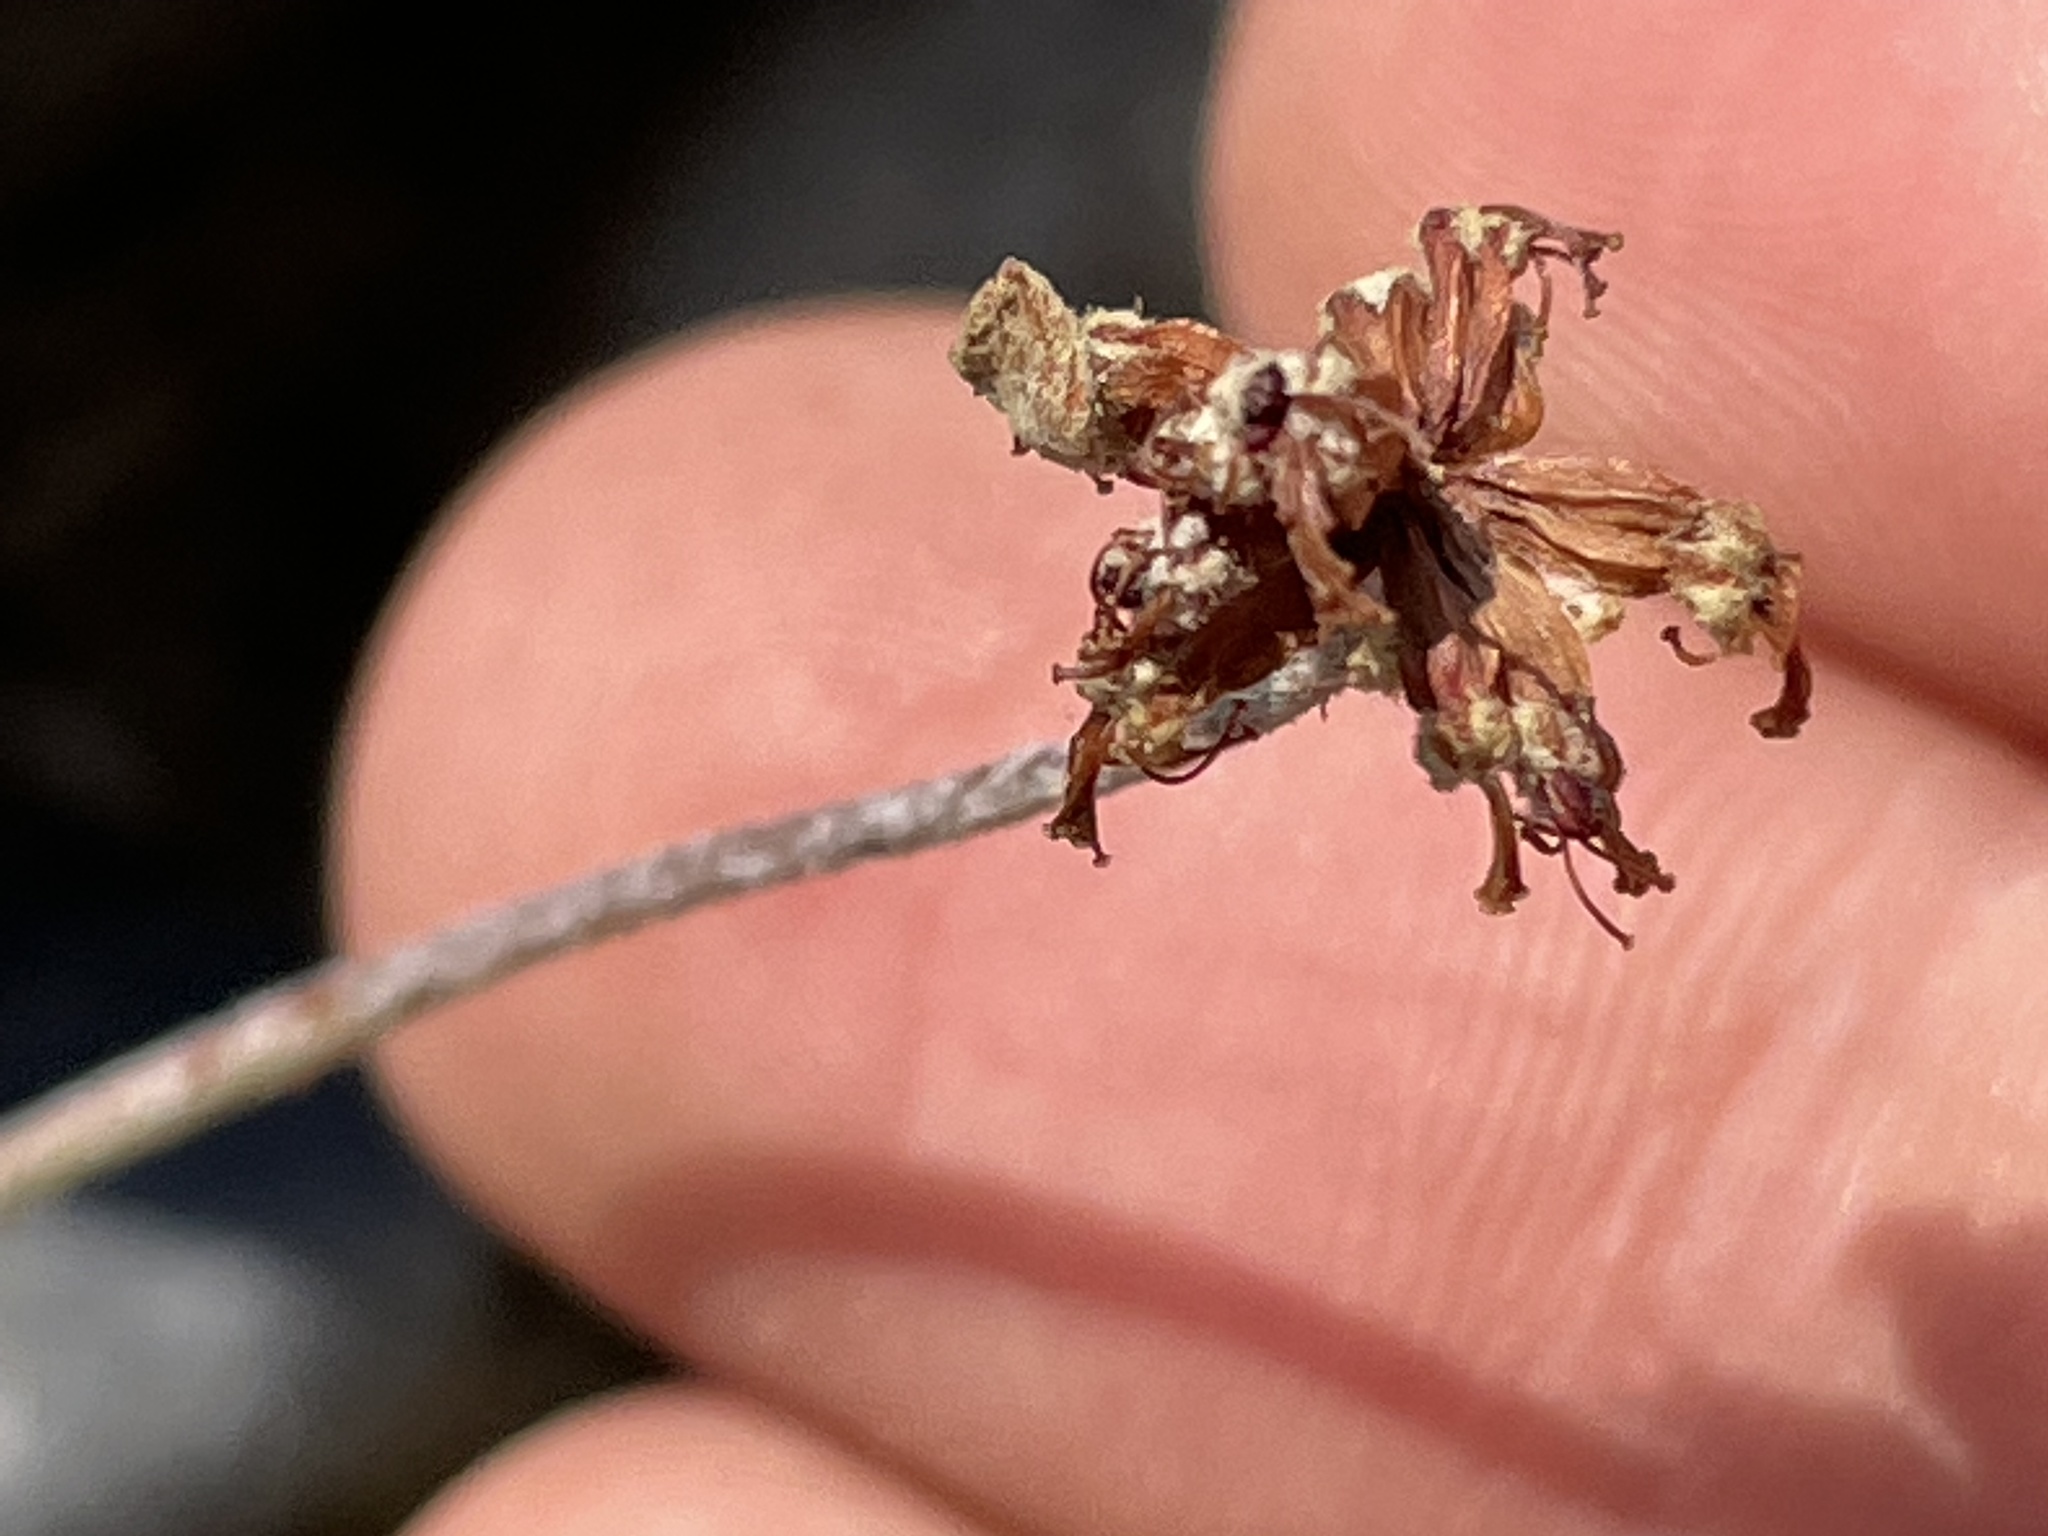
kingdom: Plantae
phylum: Tracheophyta
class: Magnoliopsida
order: Caryophyllales
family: Polygonaceae
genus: Eriogonum
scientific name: Eriogonum jamesii
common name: Antelope-sage
